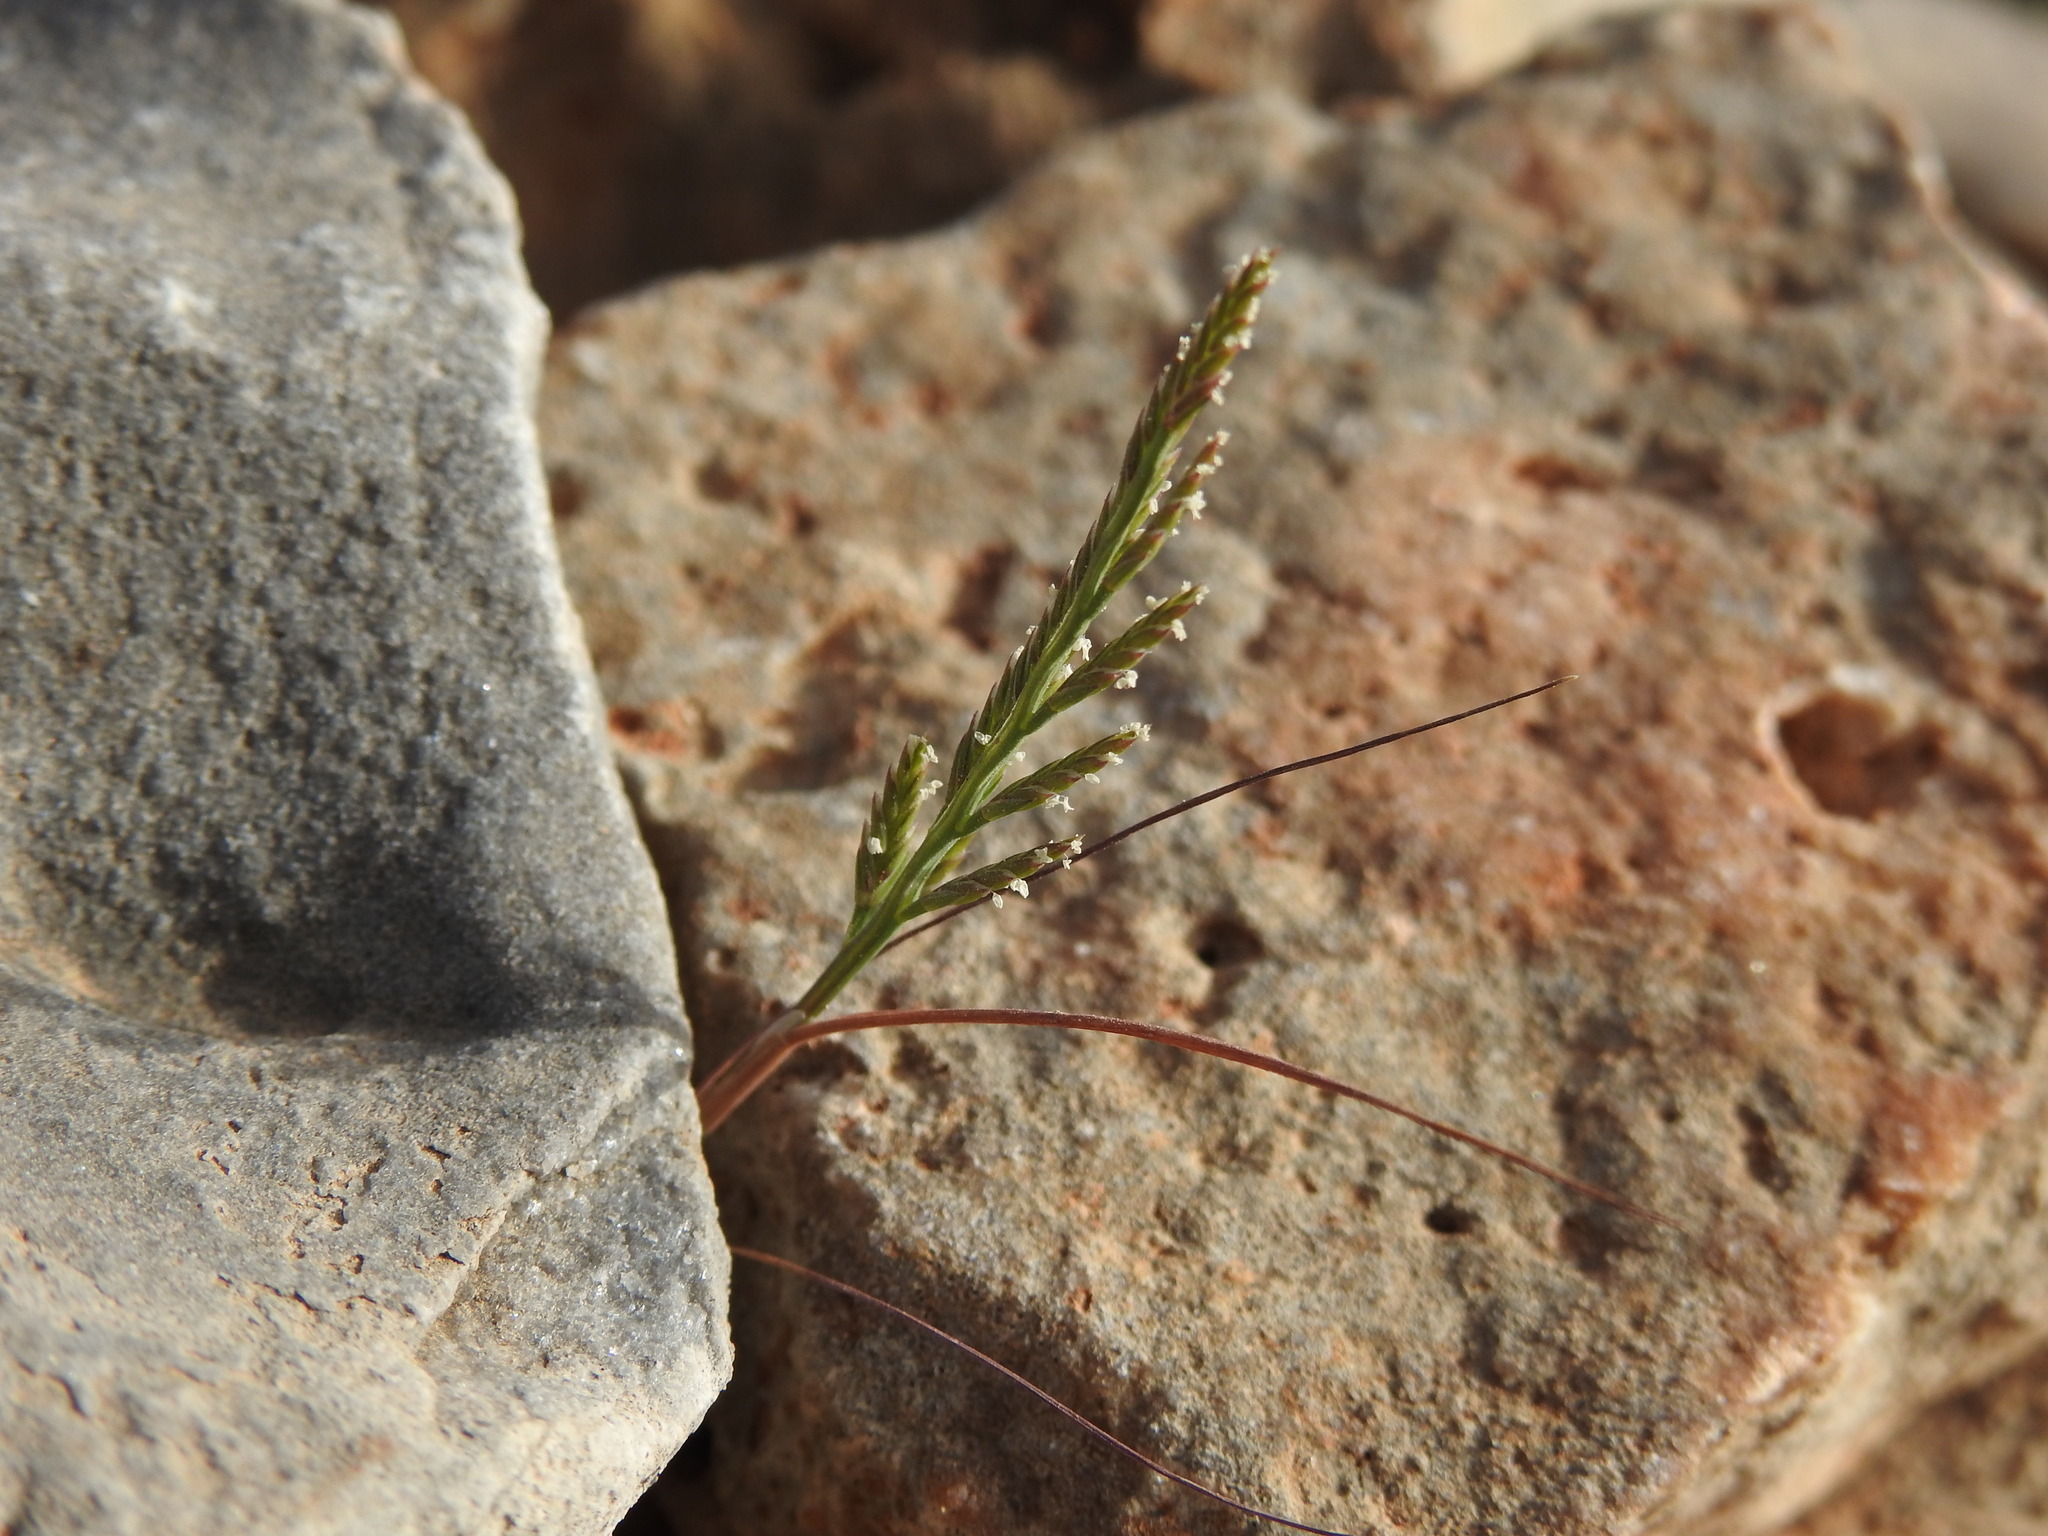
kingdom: Plantae
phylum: Tracheophyta
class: Liliopsida
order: Poales
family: Poaceae
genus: Catapodium
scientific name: Catapodium rigidum
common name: Fern-grass
